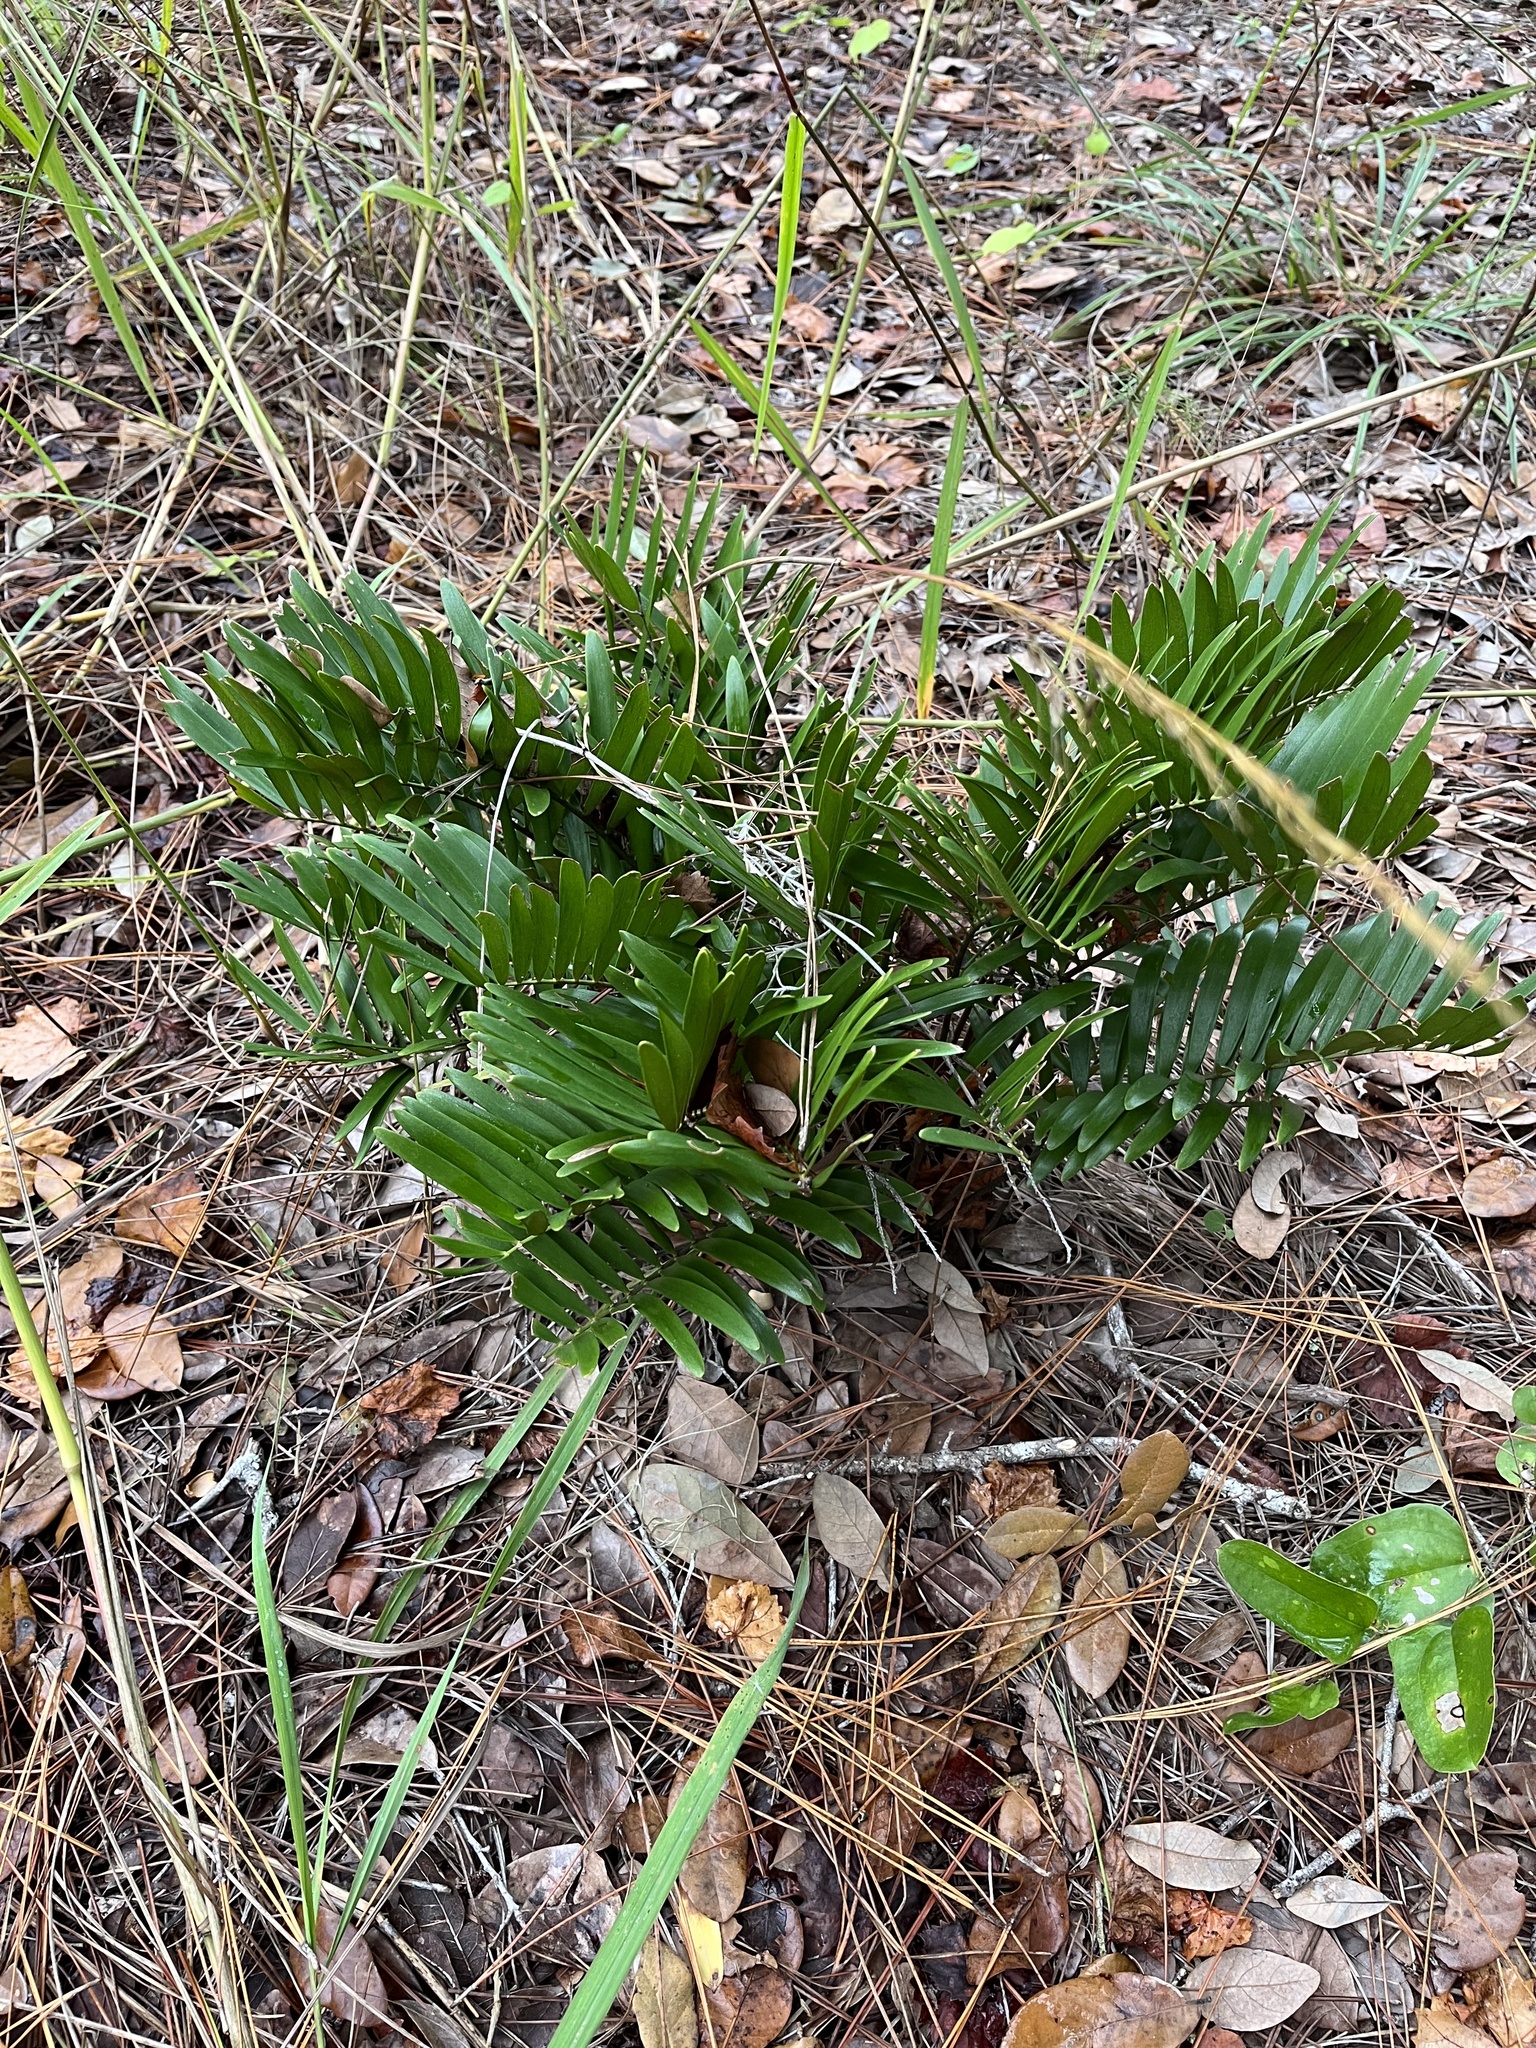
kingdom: Plantae
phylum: Tracheophyta
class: Cycadopsida
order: Cycadales
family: Zamiaceae
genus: Zamia
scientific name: Zamia integrifolia
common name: Florida arrowroot
